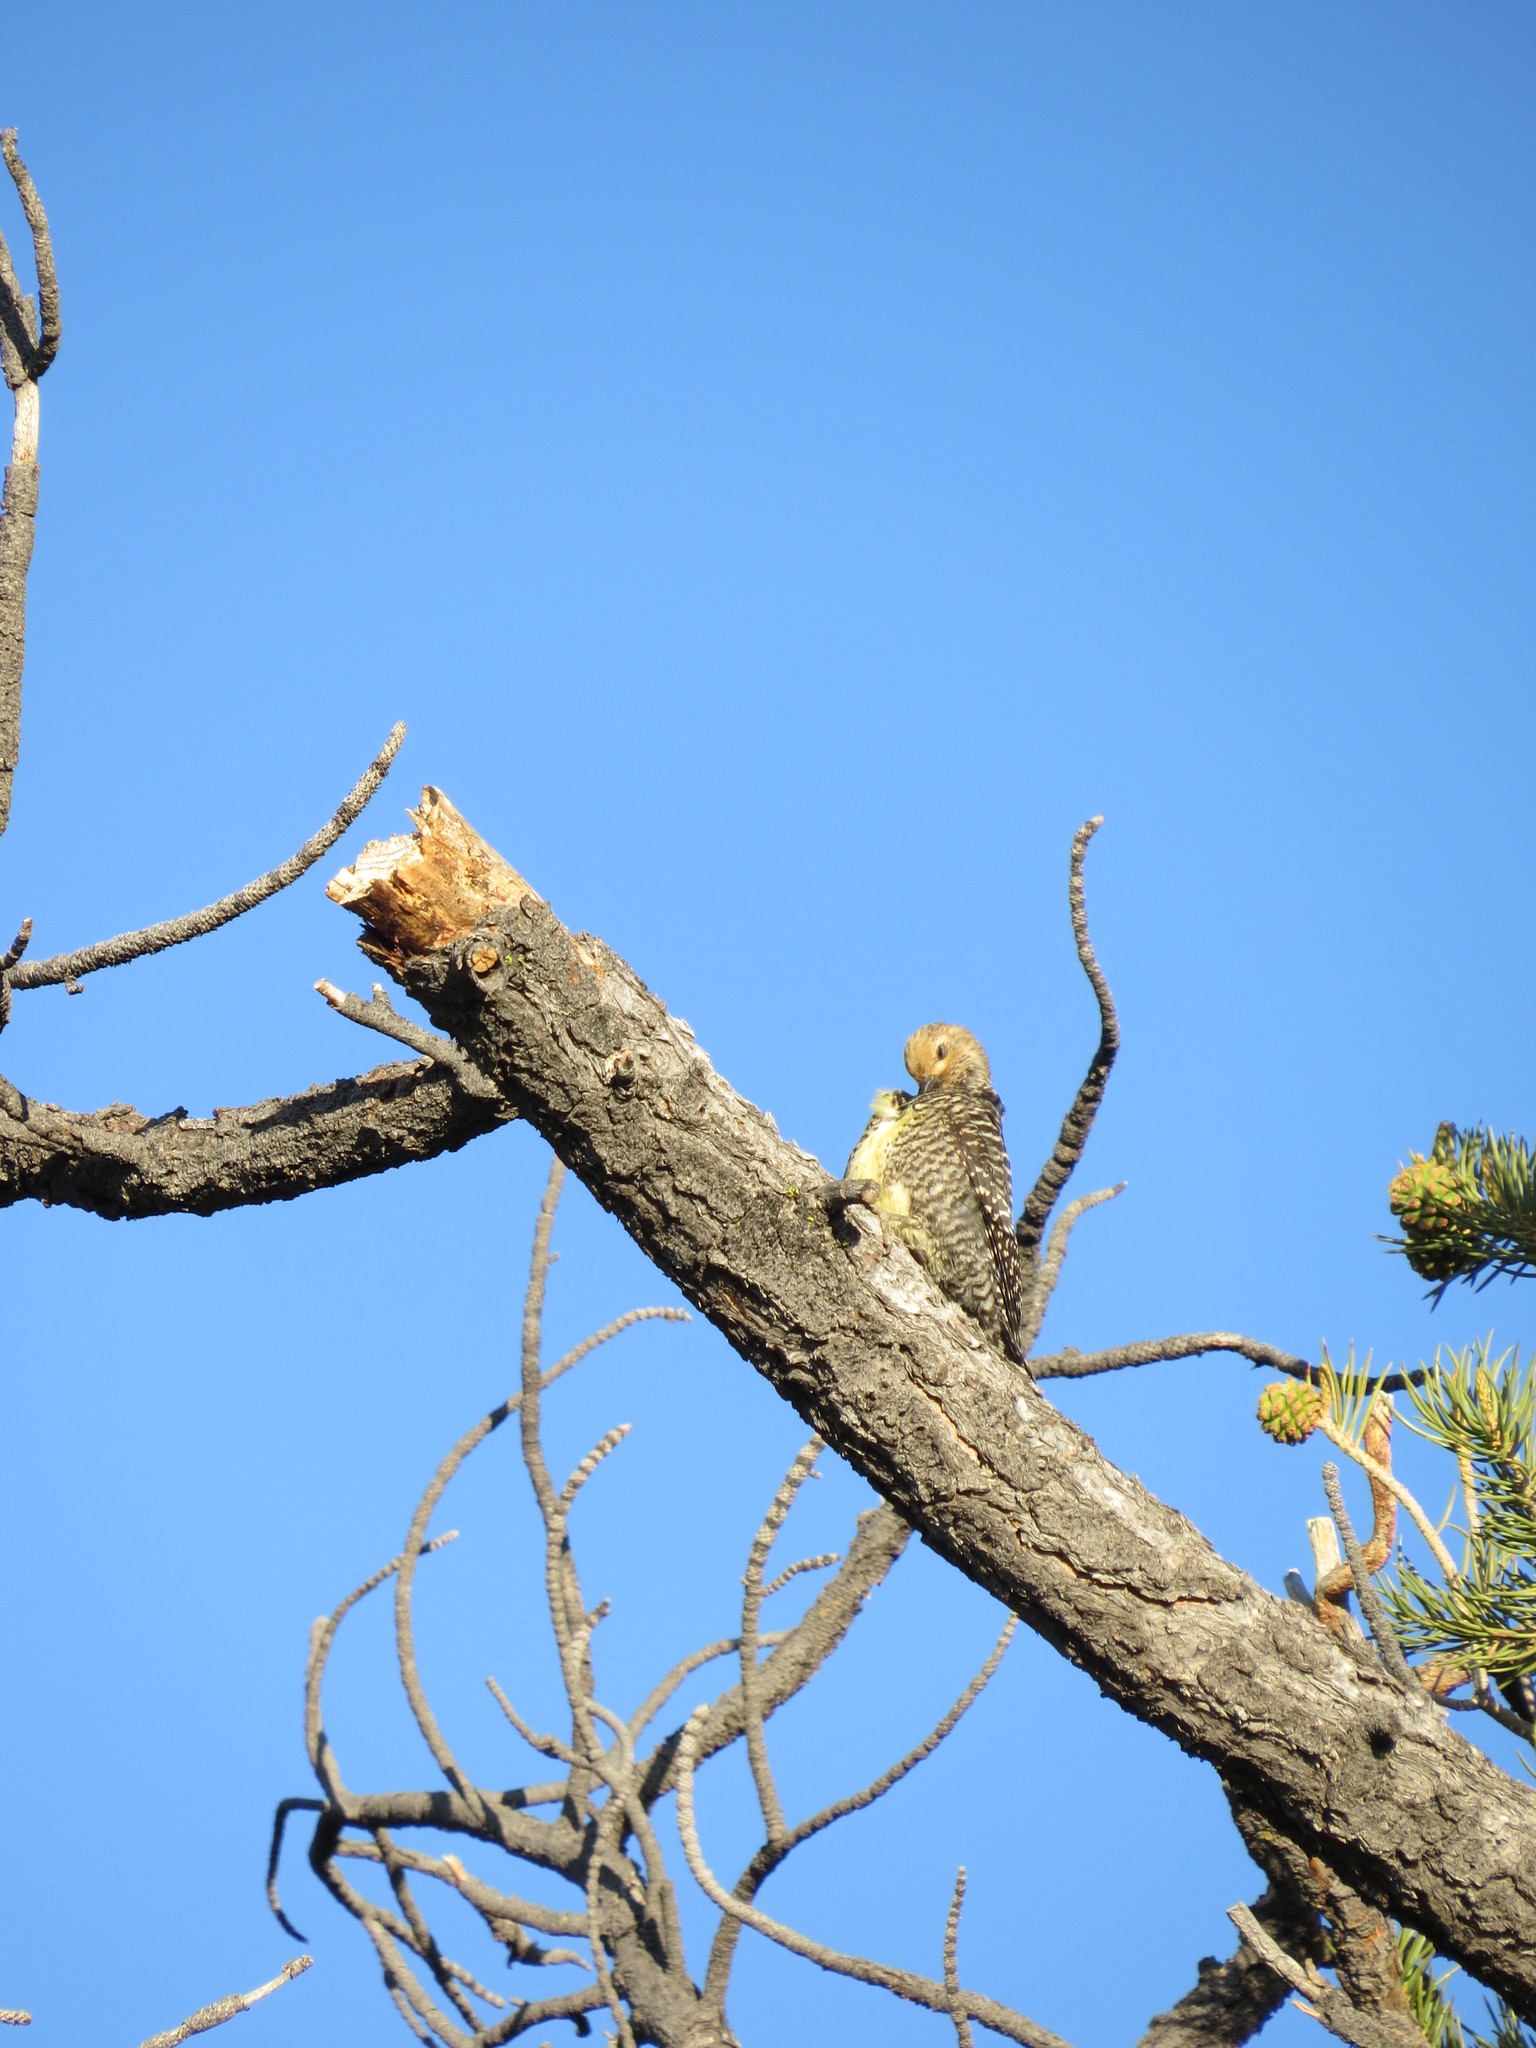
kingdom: Animalia
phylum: Chordata
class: Aves
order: Piciformes
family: Picidae
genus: Sphyrapicus
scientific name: Sphyrapicus thyroideus
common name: Williamson's sapsucker
